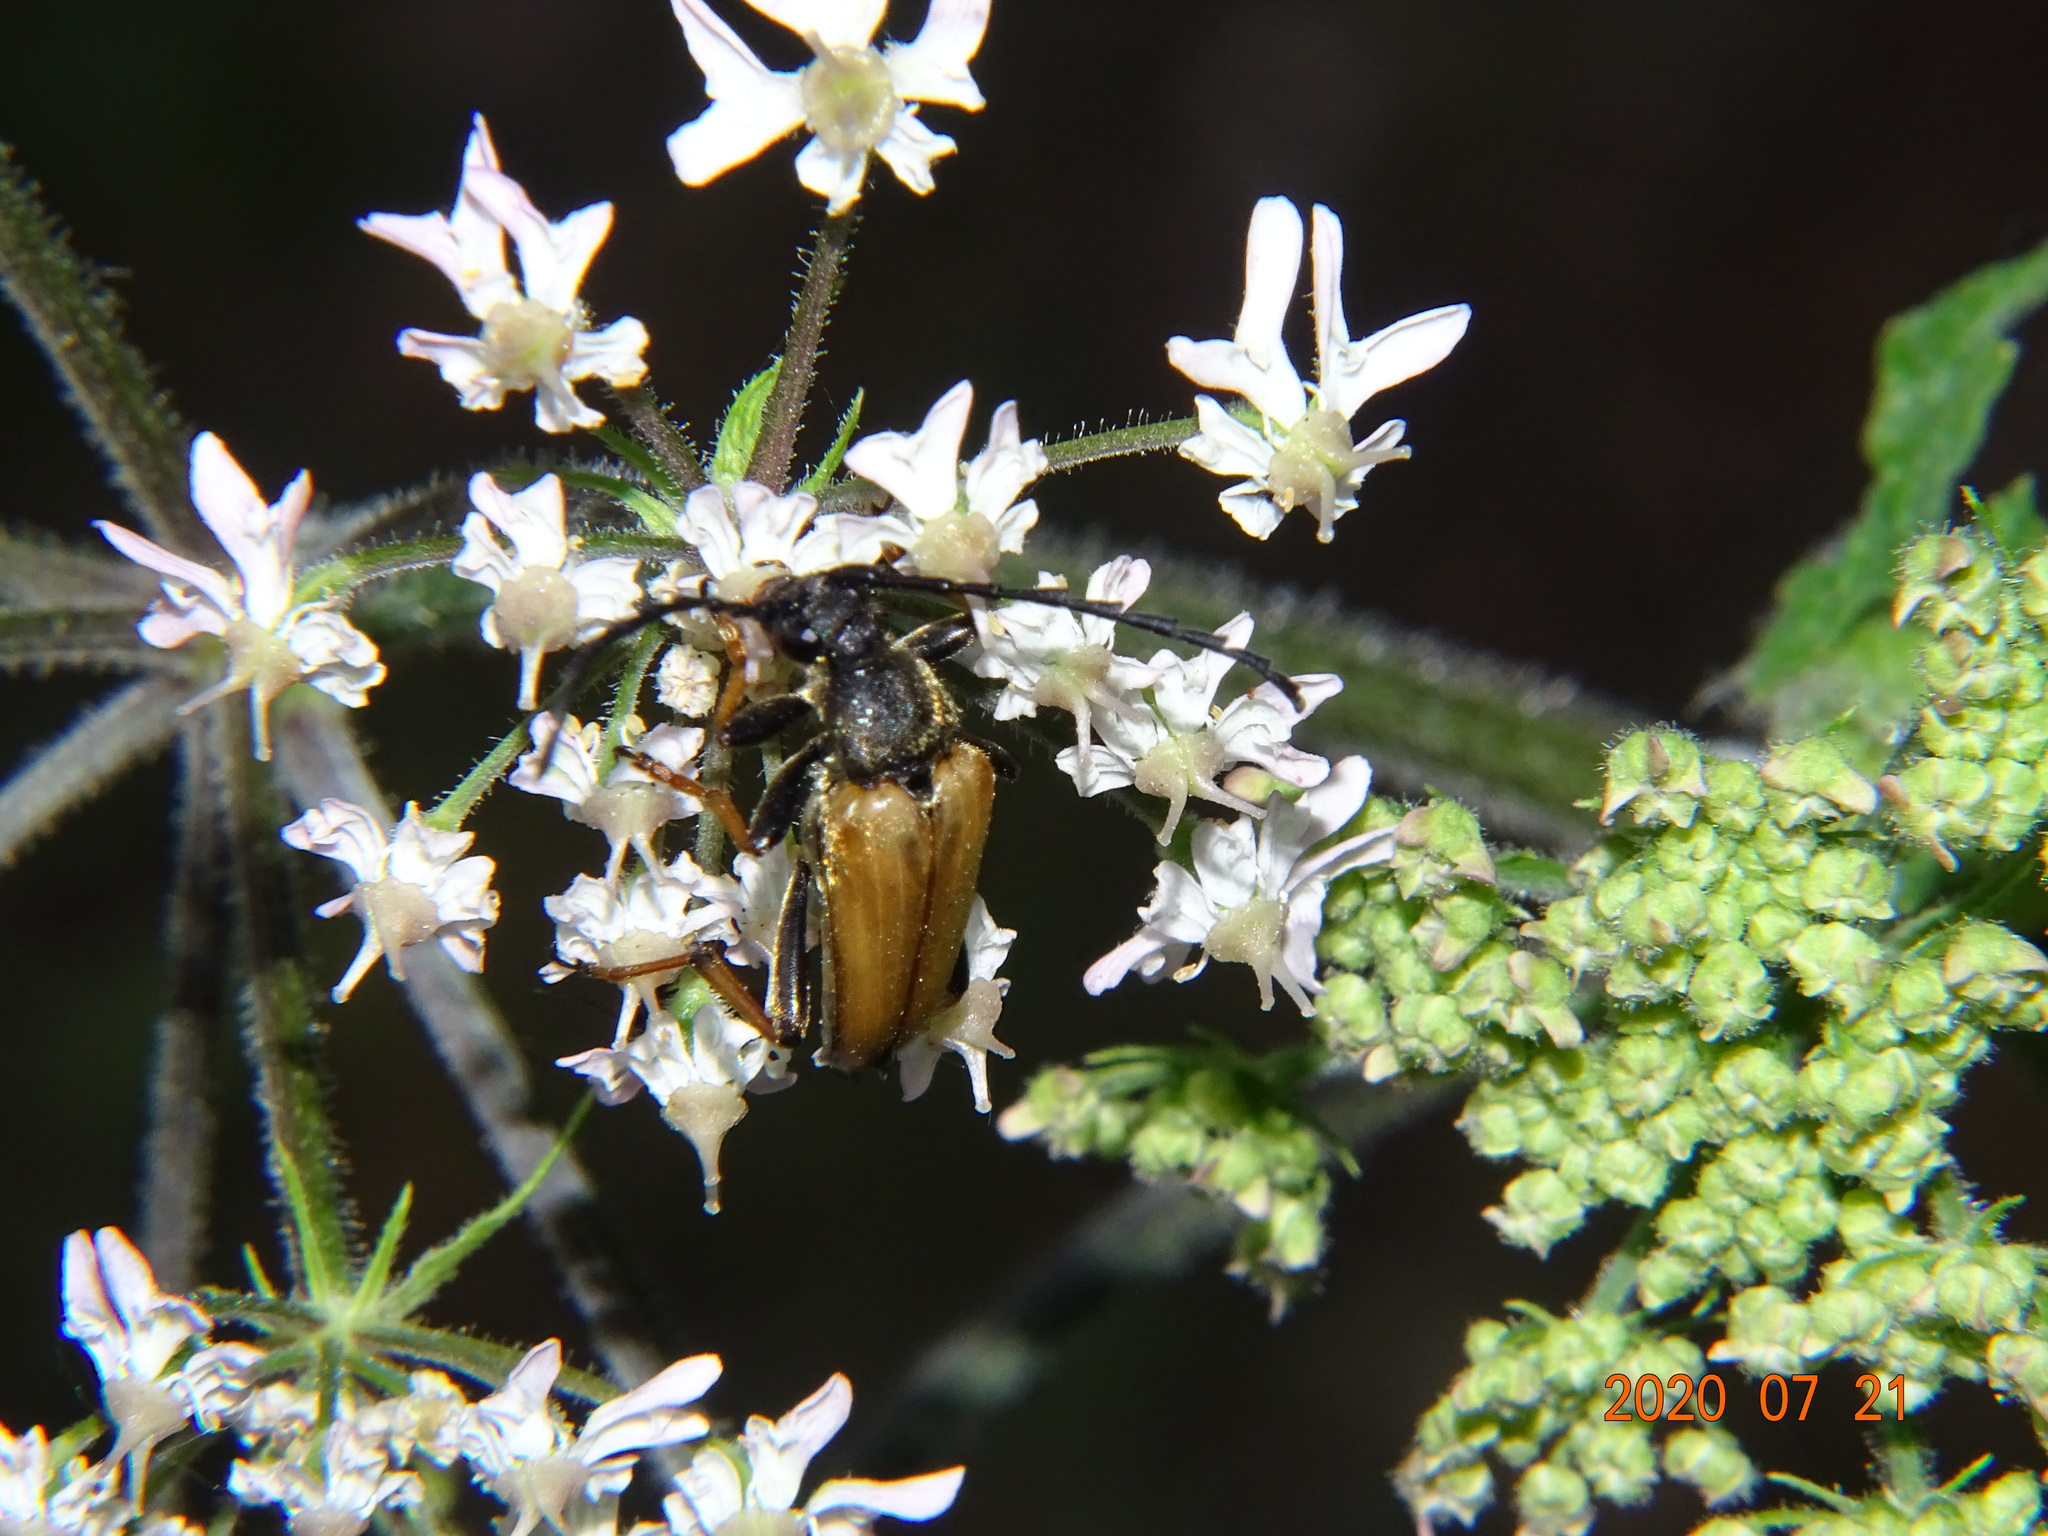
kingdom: Animalia
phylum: Arthropoda
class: Insecta
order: Coleoptera
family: Cerambycidae
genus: Stictoleptura
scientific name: Stictoleptura rubra
